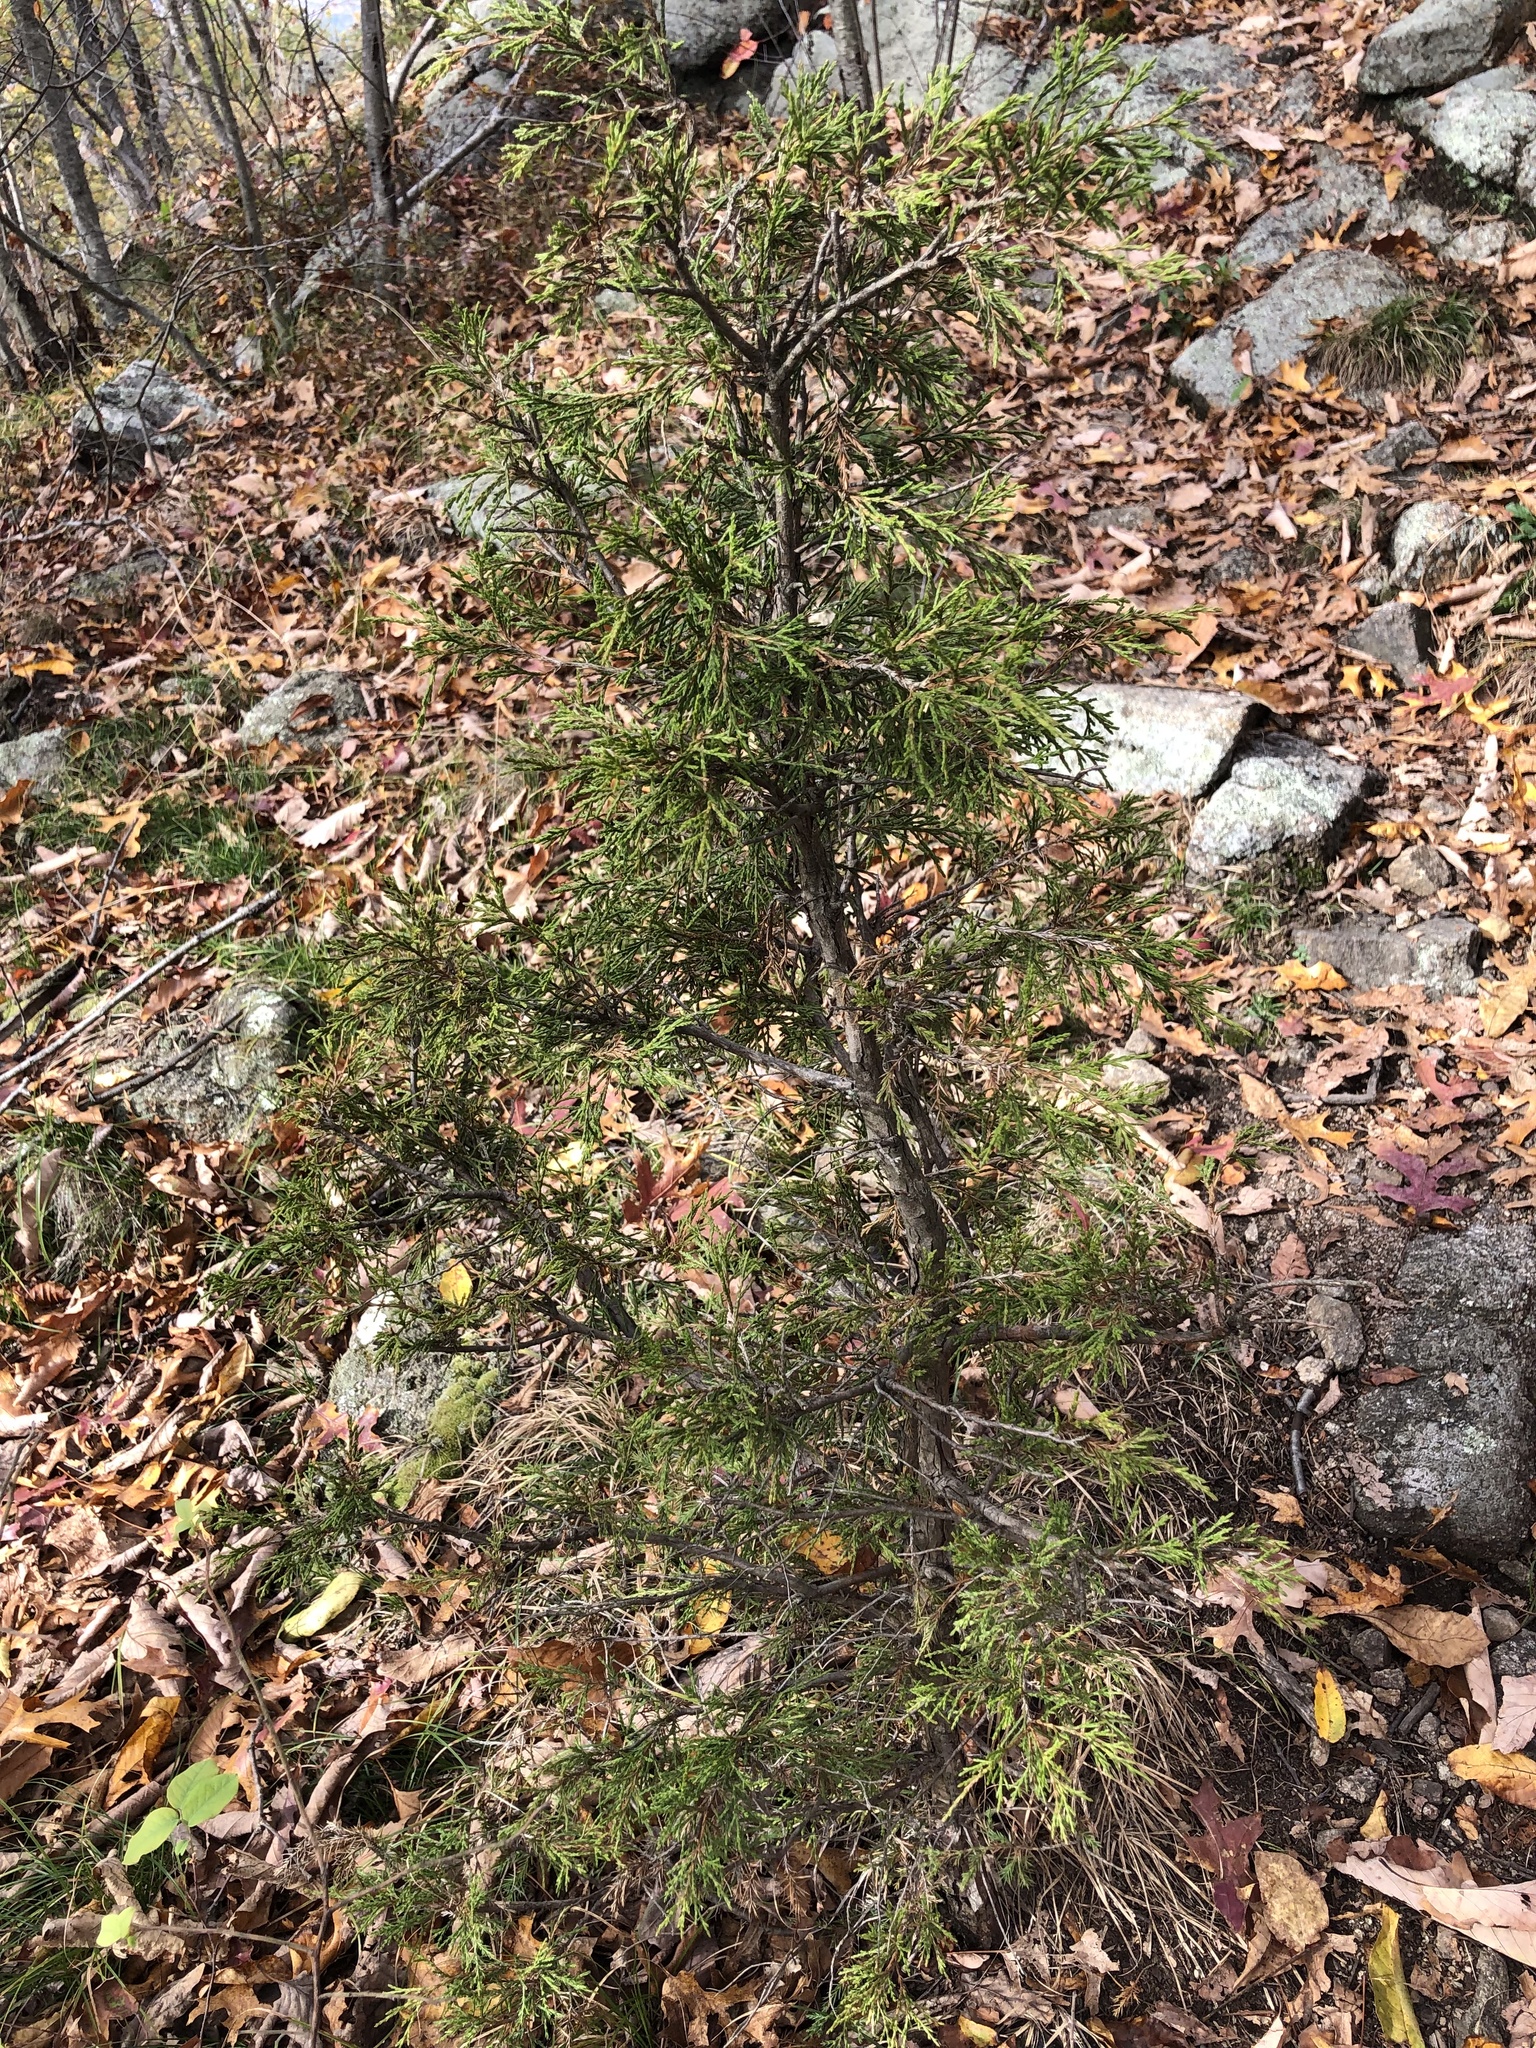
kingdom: Plantae
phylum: Tracheophyta
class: Pinopsida
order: Pinales
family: Cupressaceae
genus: Juniperus
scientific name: Juniperus virginiana
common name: Red juniper
